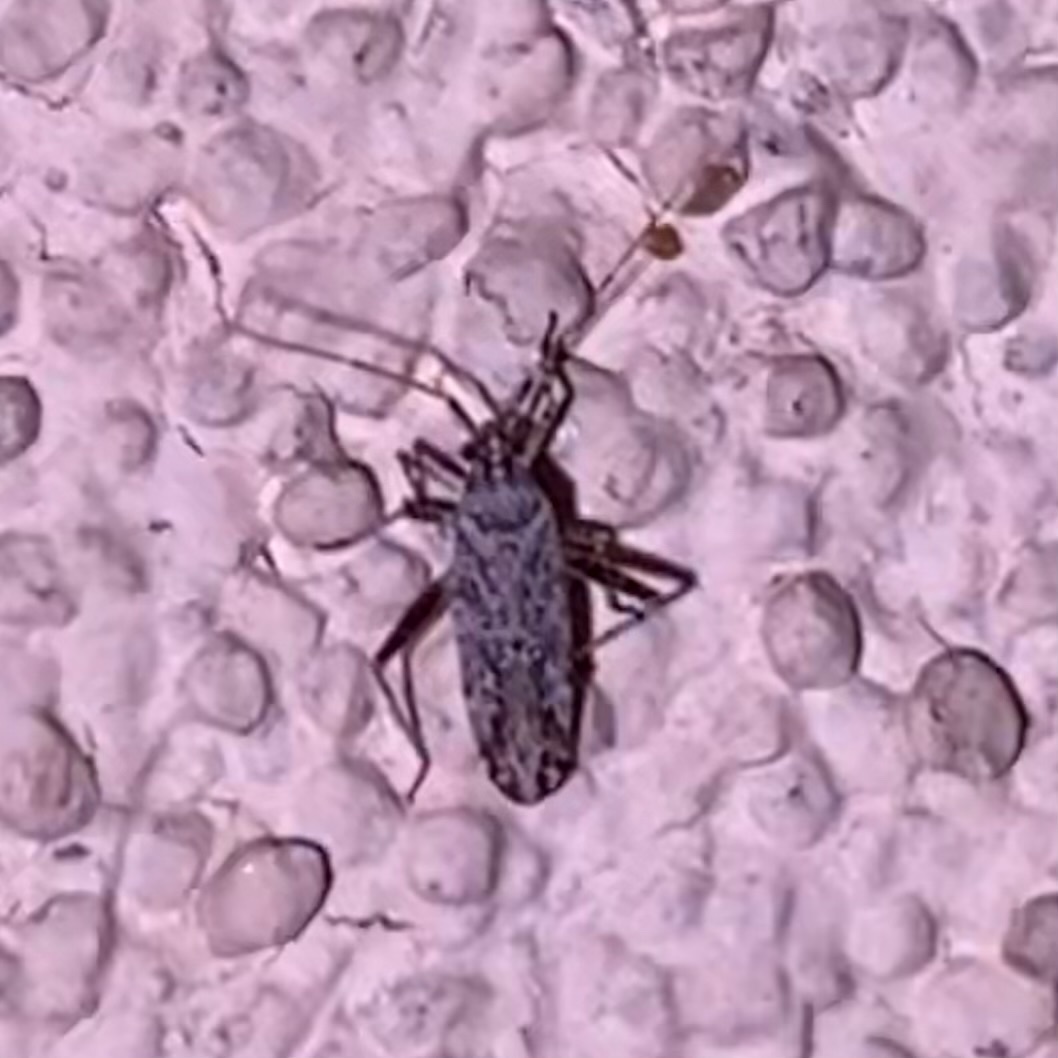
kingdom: Animalia
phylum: Arthropoda
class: Insecta
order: Hemiptera
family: Miridae
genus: Phytocoris
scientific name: Phytocoris
